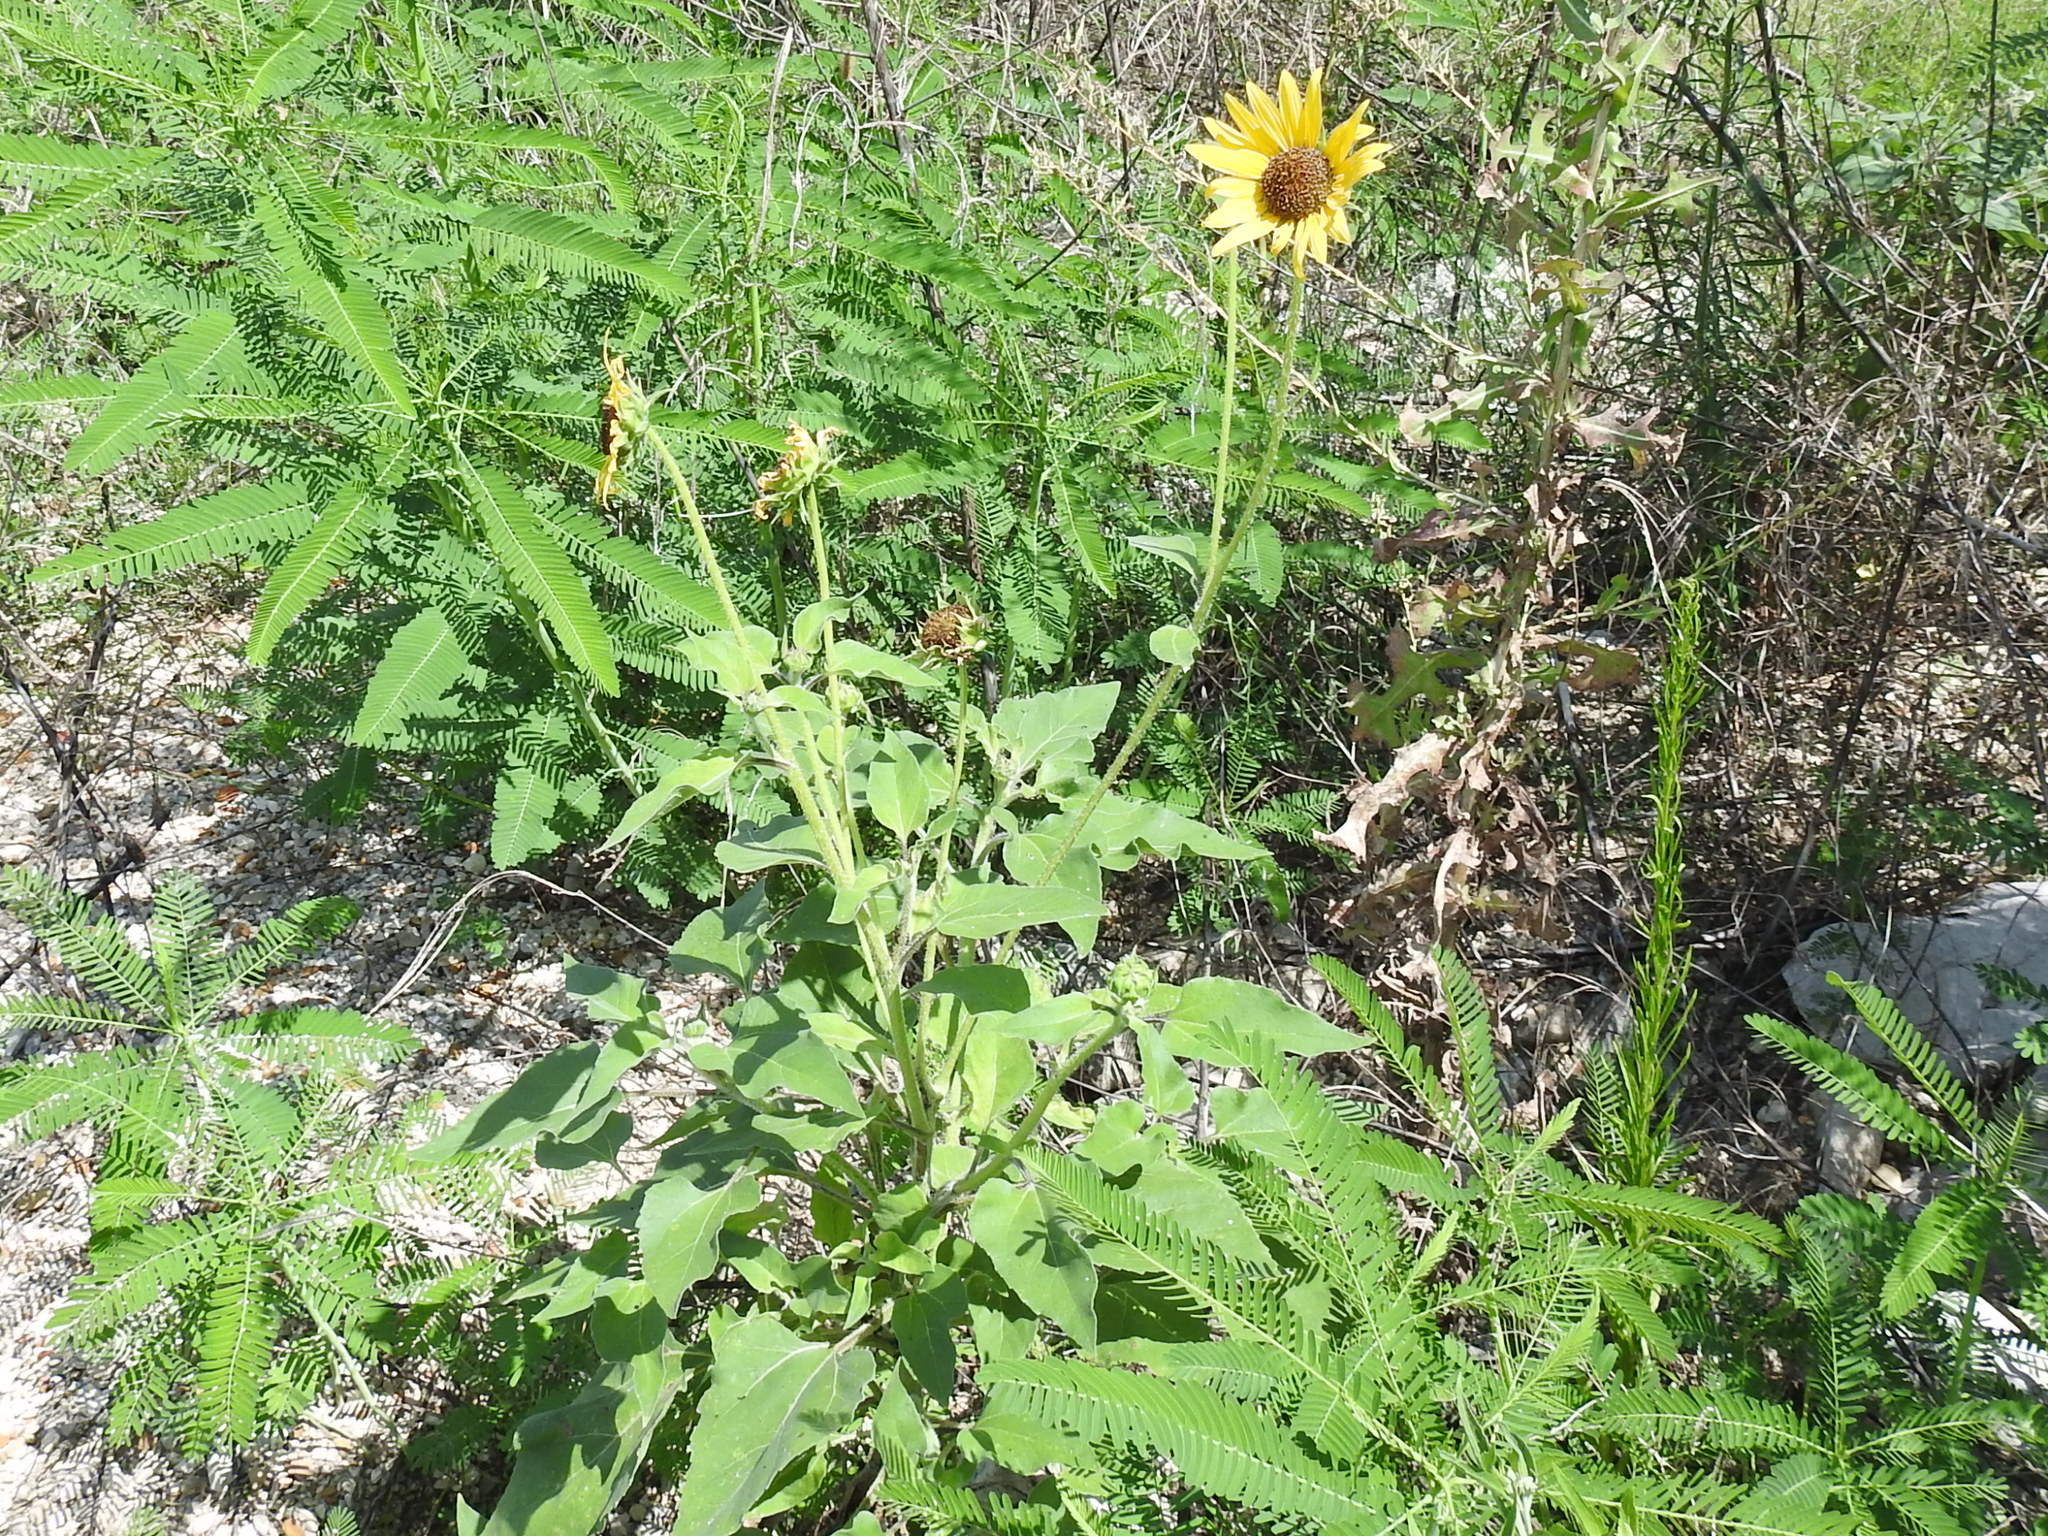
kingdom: Plantae
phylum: Tracheophyta
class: Magnoliopsida
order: Asterales
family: Asteraceae
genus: Helianthus
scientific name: Helianthus annuus
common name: Sunflower
